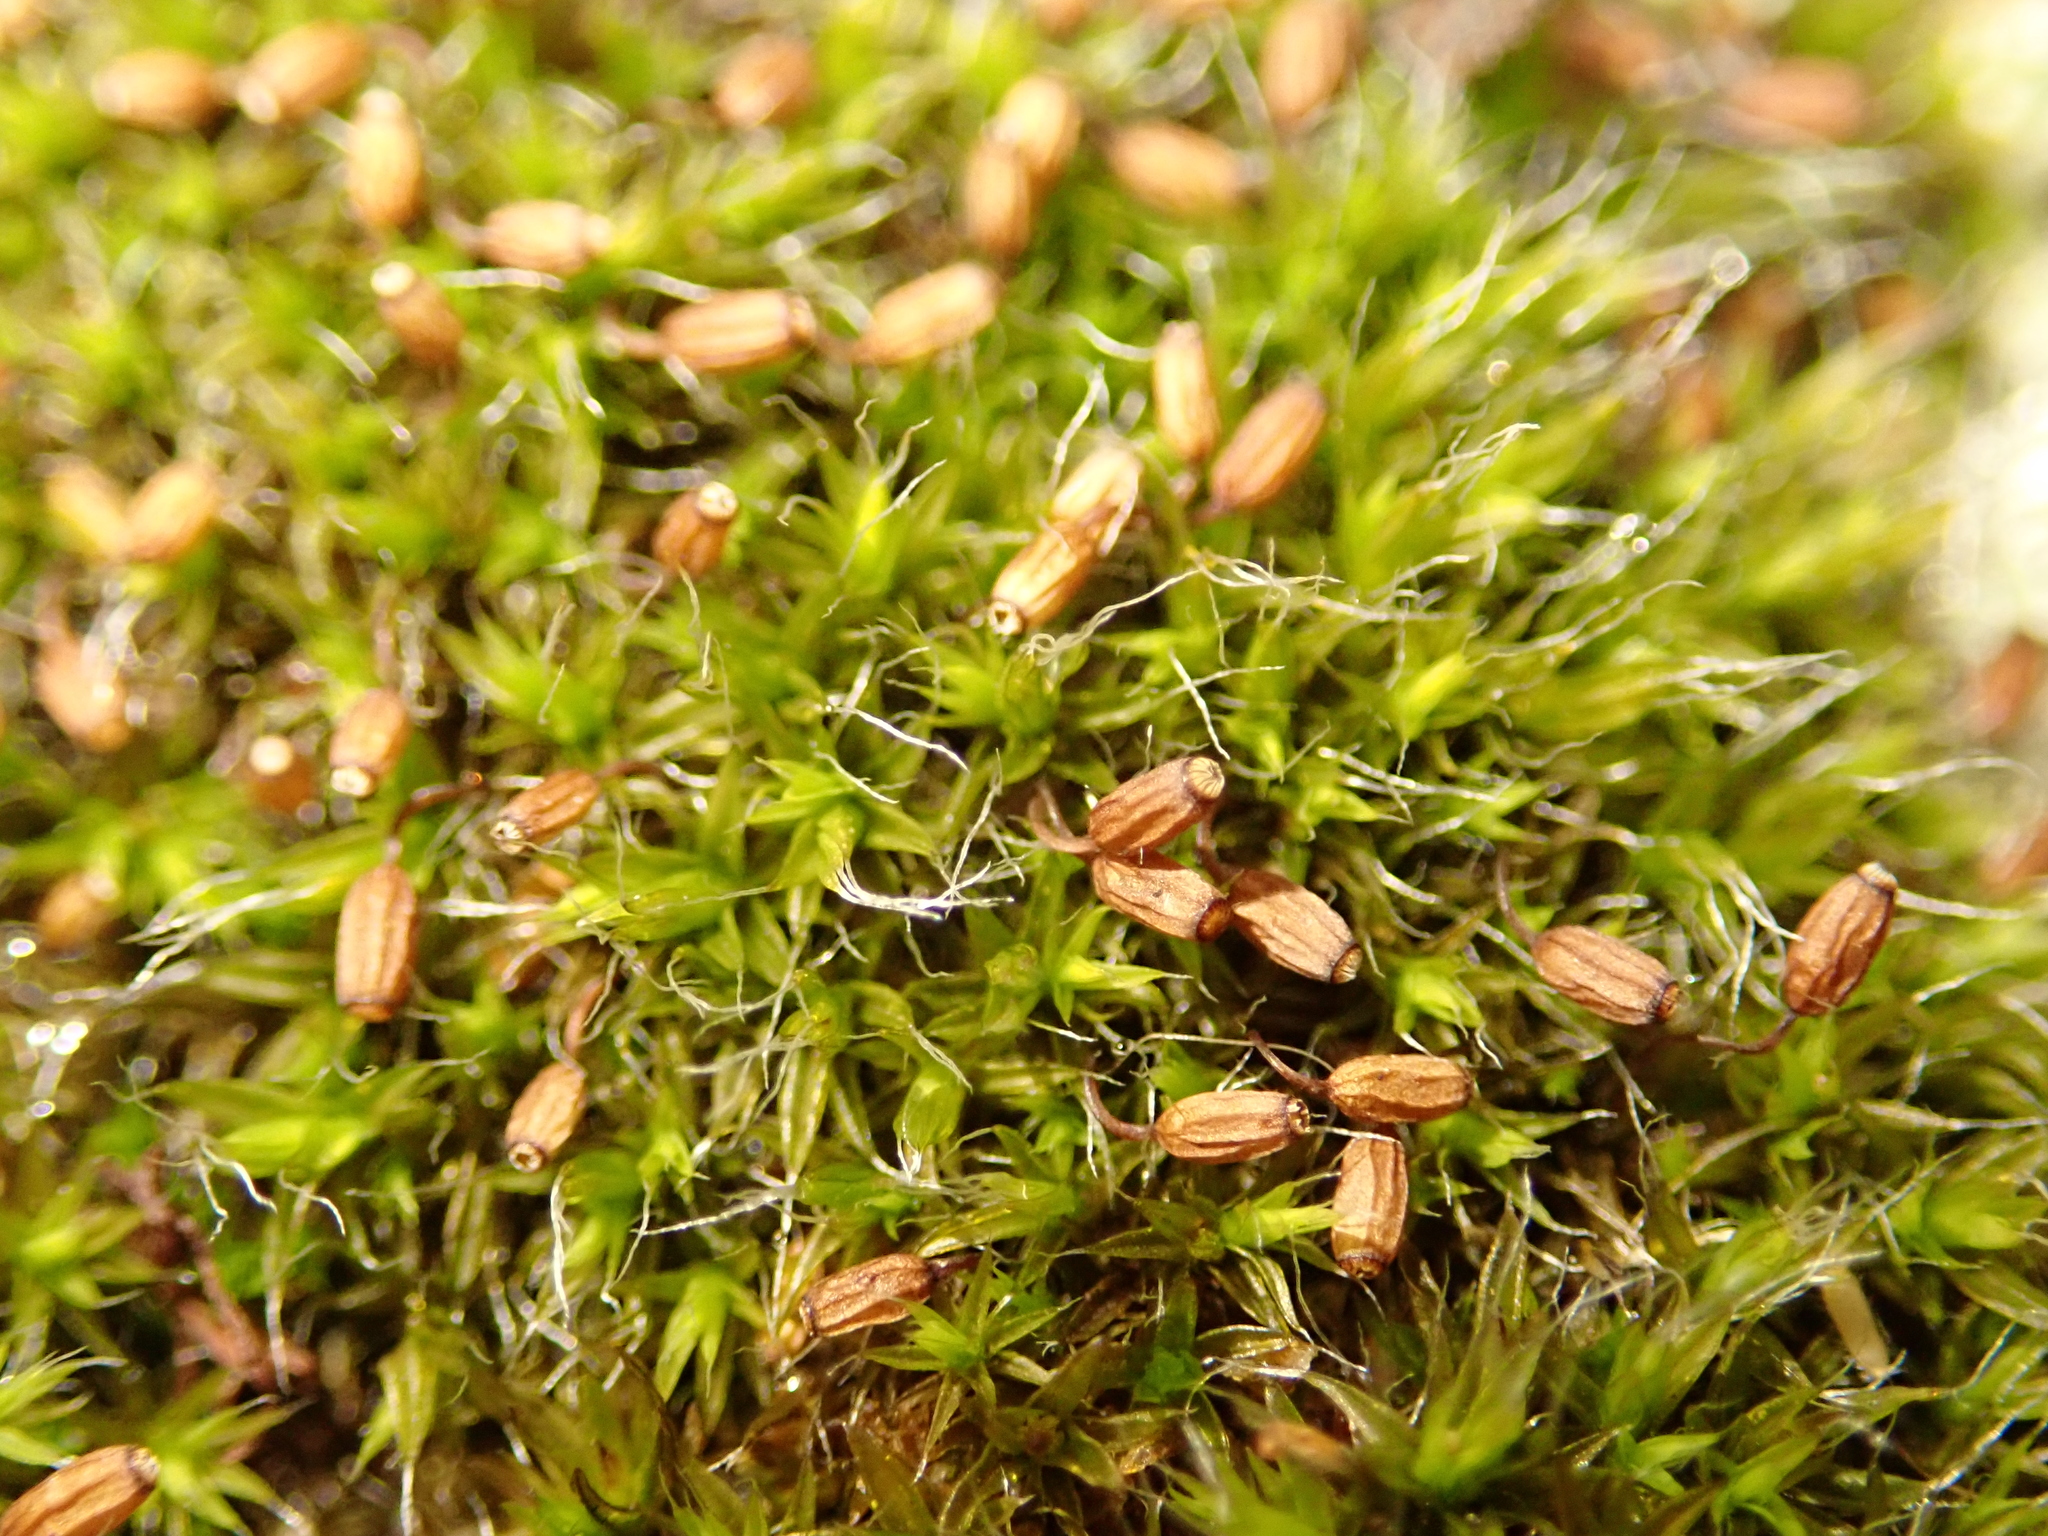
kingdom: Plantae
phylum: Bryophyta
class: Bryopsida
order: Grimmiales
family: Grimmiaceae
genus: Grimmia
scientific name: Grimmia pulvinata
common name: Grey-cushioned grimmia
